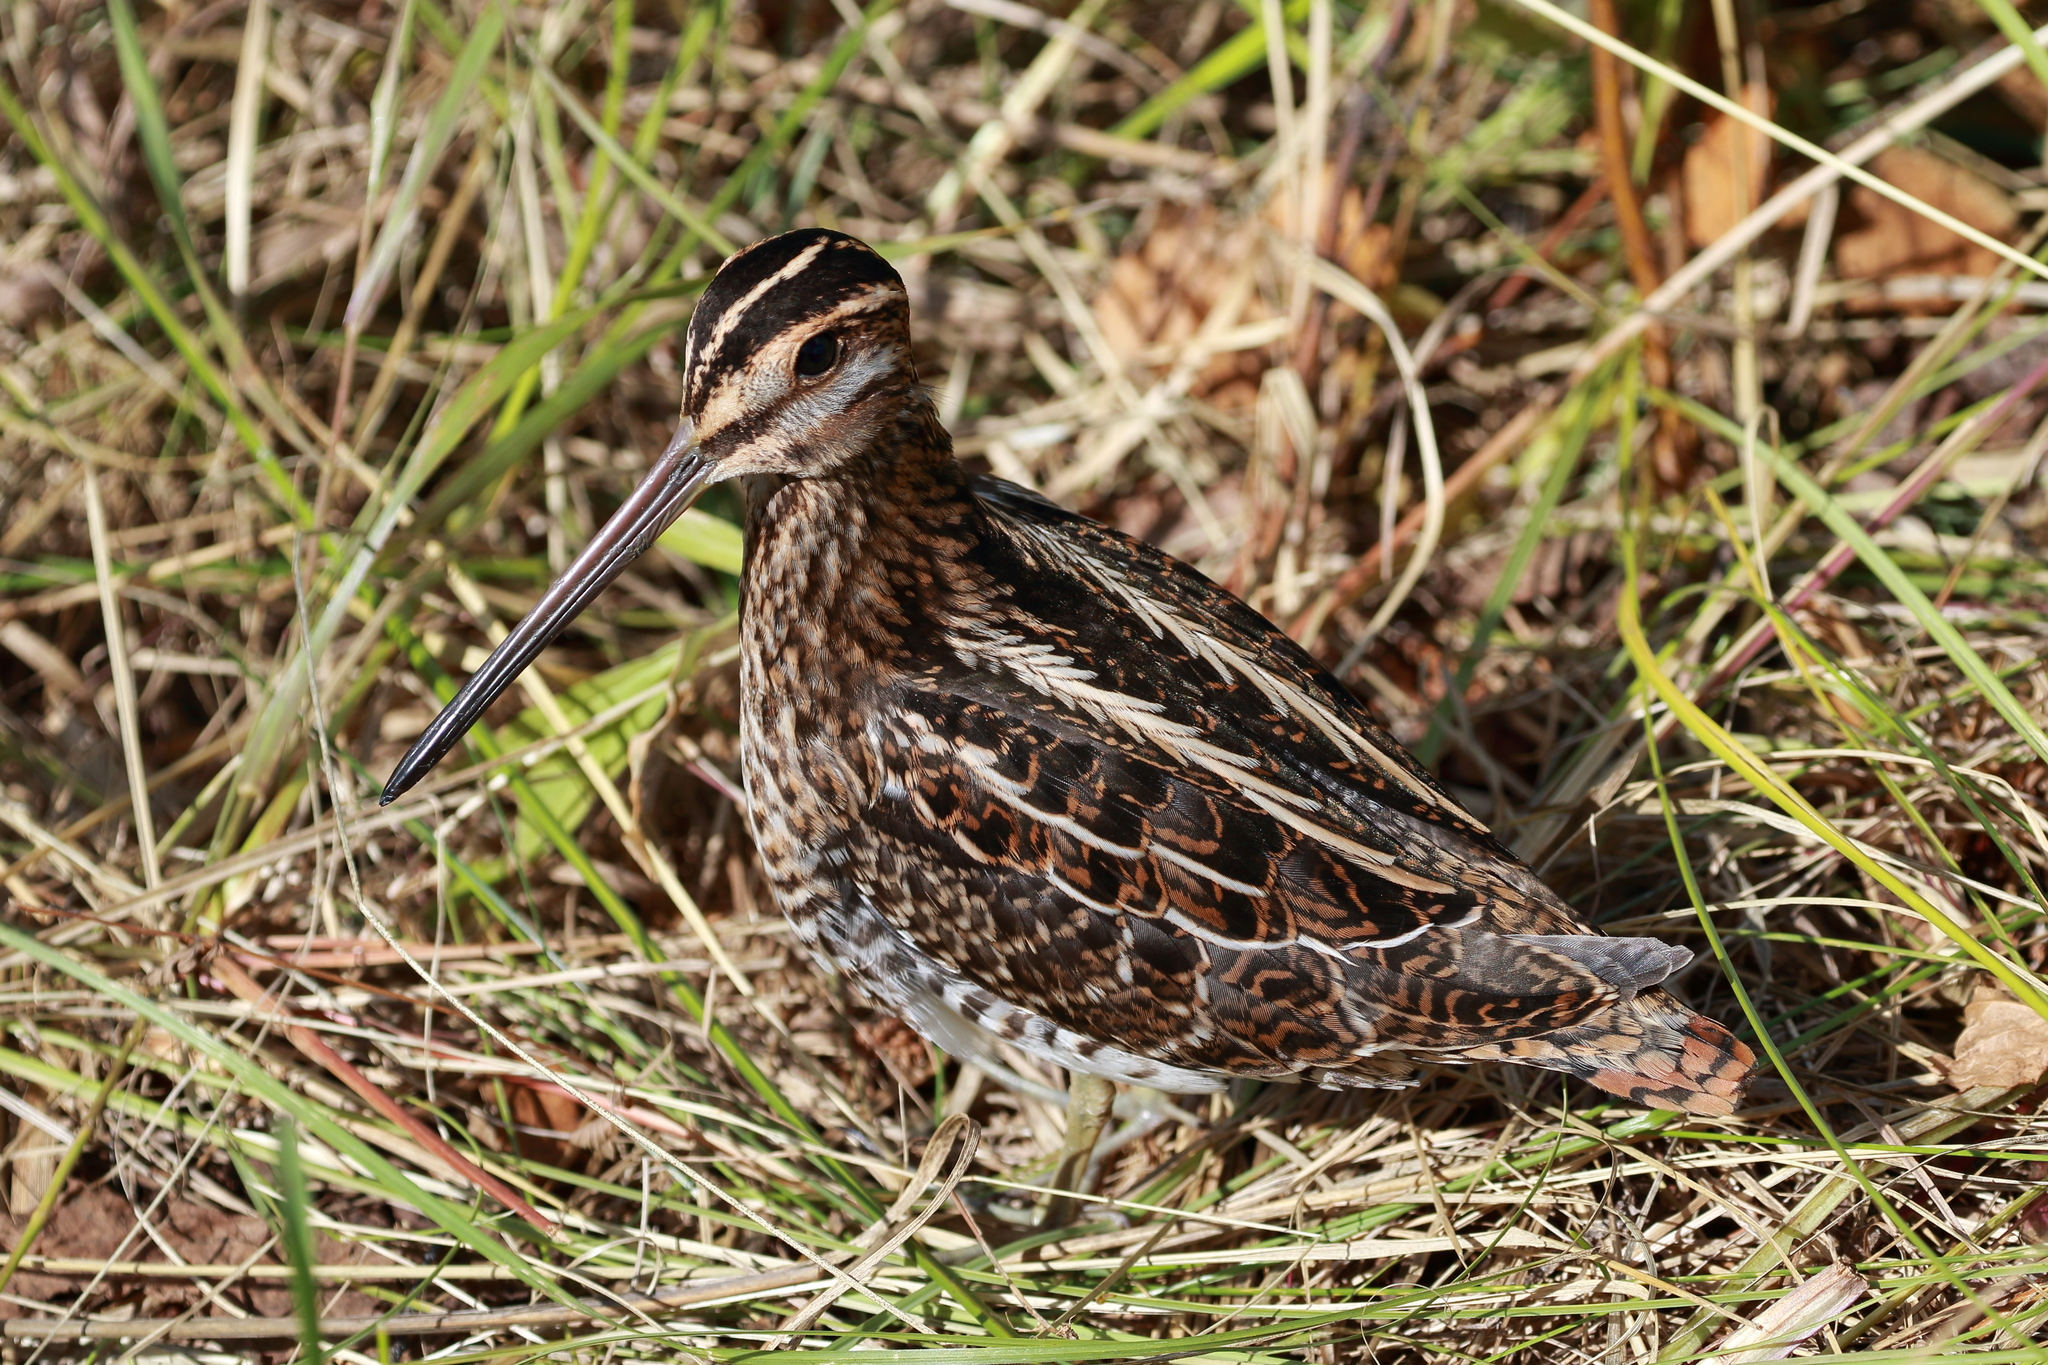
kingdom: Animalia
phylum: Chordata
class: Aves
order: Charadriiformes
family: Scolopacidae
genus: Gallinago
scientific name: Gallinago delicata
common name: Wilson's snipe
